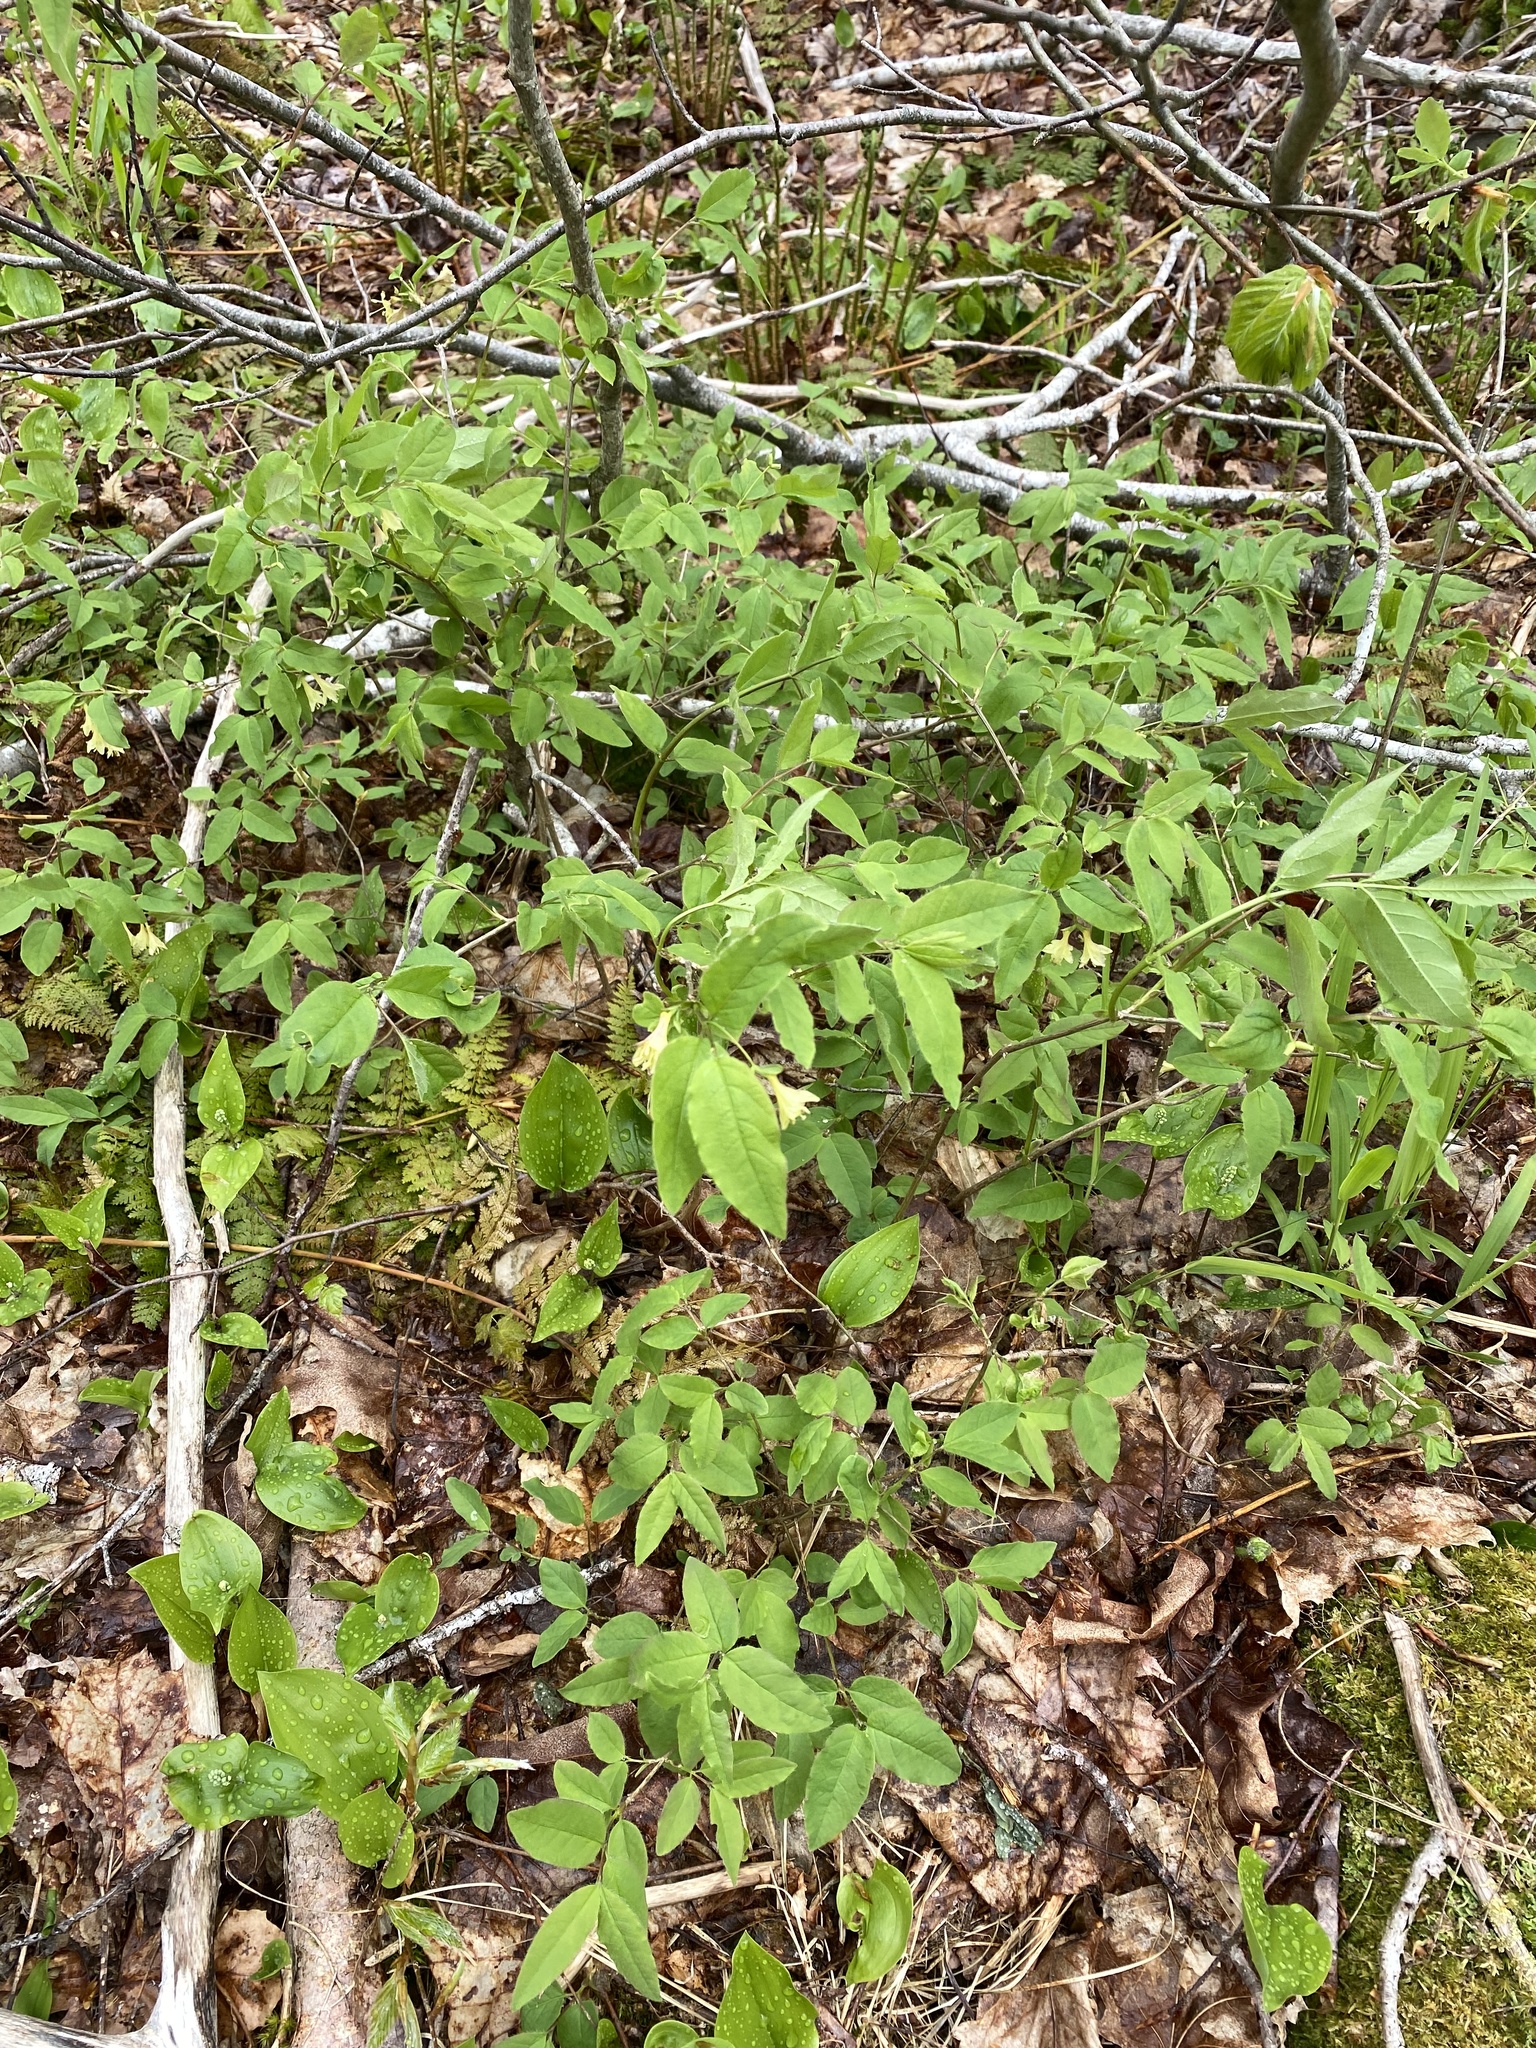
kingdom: Plantae
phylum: Tracheophyta
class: Magnoliopsida
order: Dipsacales
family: Caprifoliaceae
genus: Lonicera
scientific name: Lonicera canadensis
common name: American fly-honeysuckle
